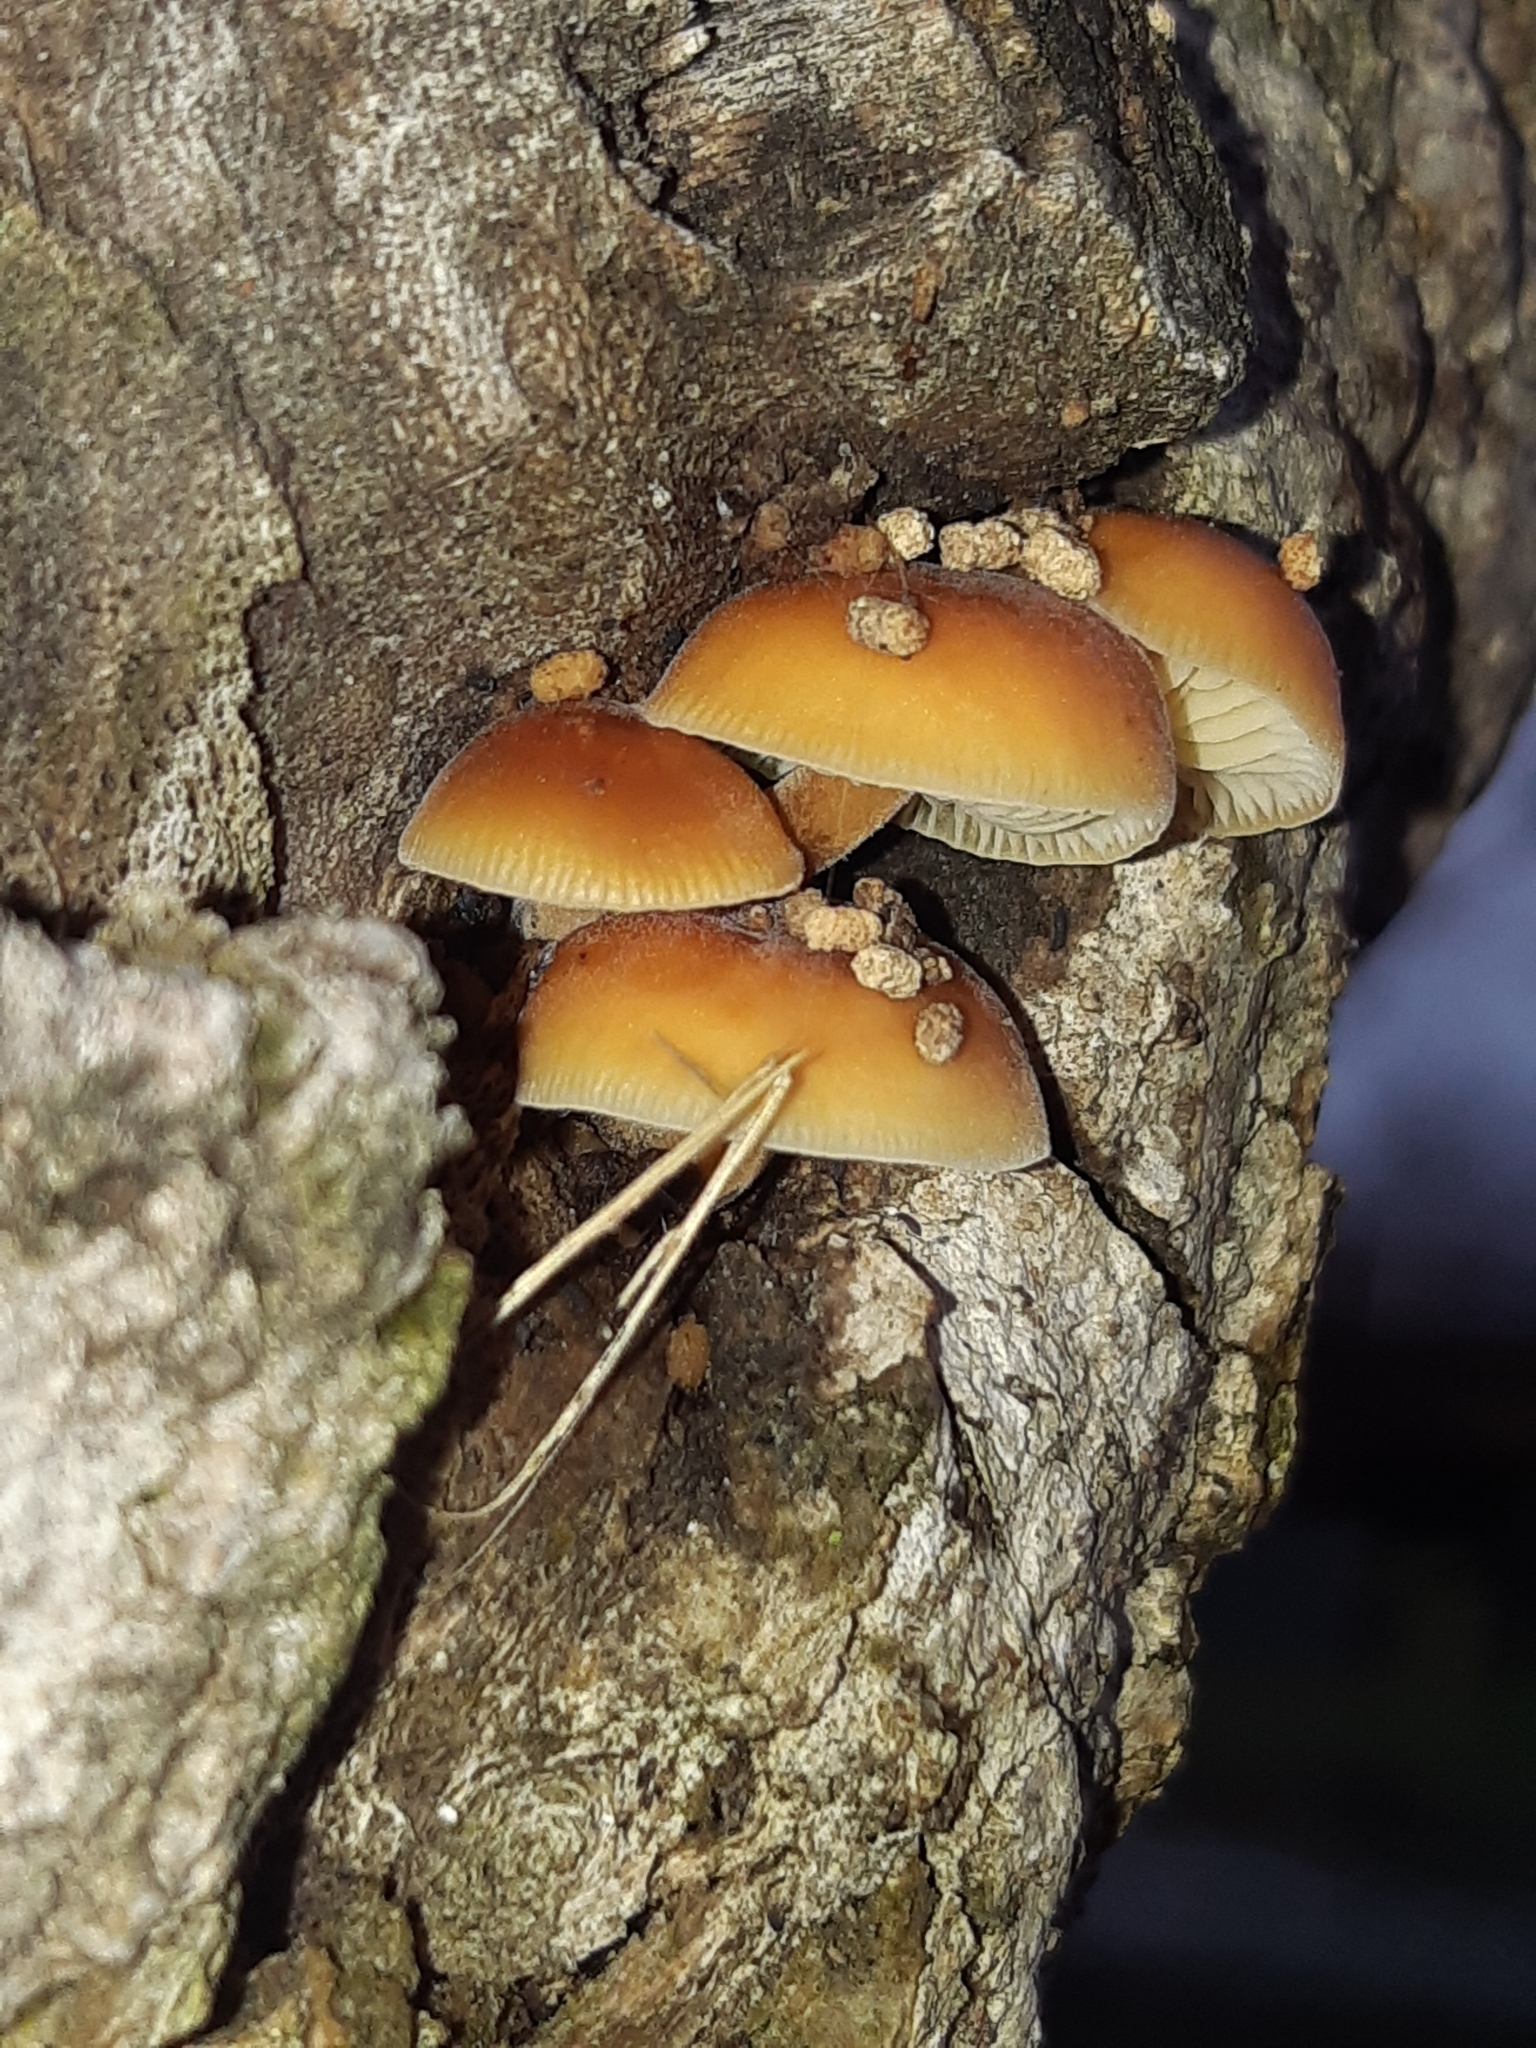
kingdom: Fungi
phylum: Basidiomycota
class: Agaricomycetes
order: Agaricales
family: Physalacriaceae
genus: Flammulina
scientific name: Flammulina velutipes
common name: Velvet shank
